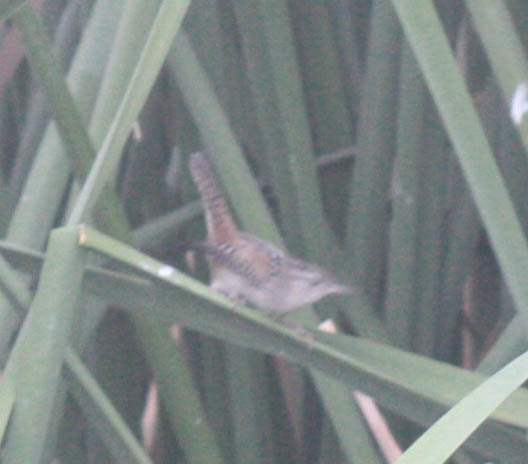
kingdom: Animalia
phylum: Chordata
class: Aves
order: Passeriformes
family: Troglodytidae
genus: Cistothorus
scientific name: Cistothorus palustris
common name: Marsh wren
